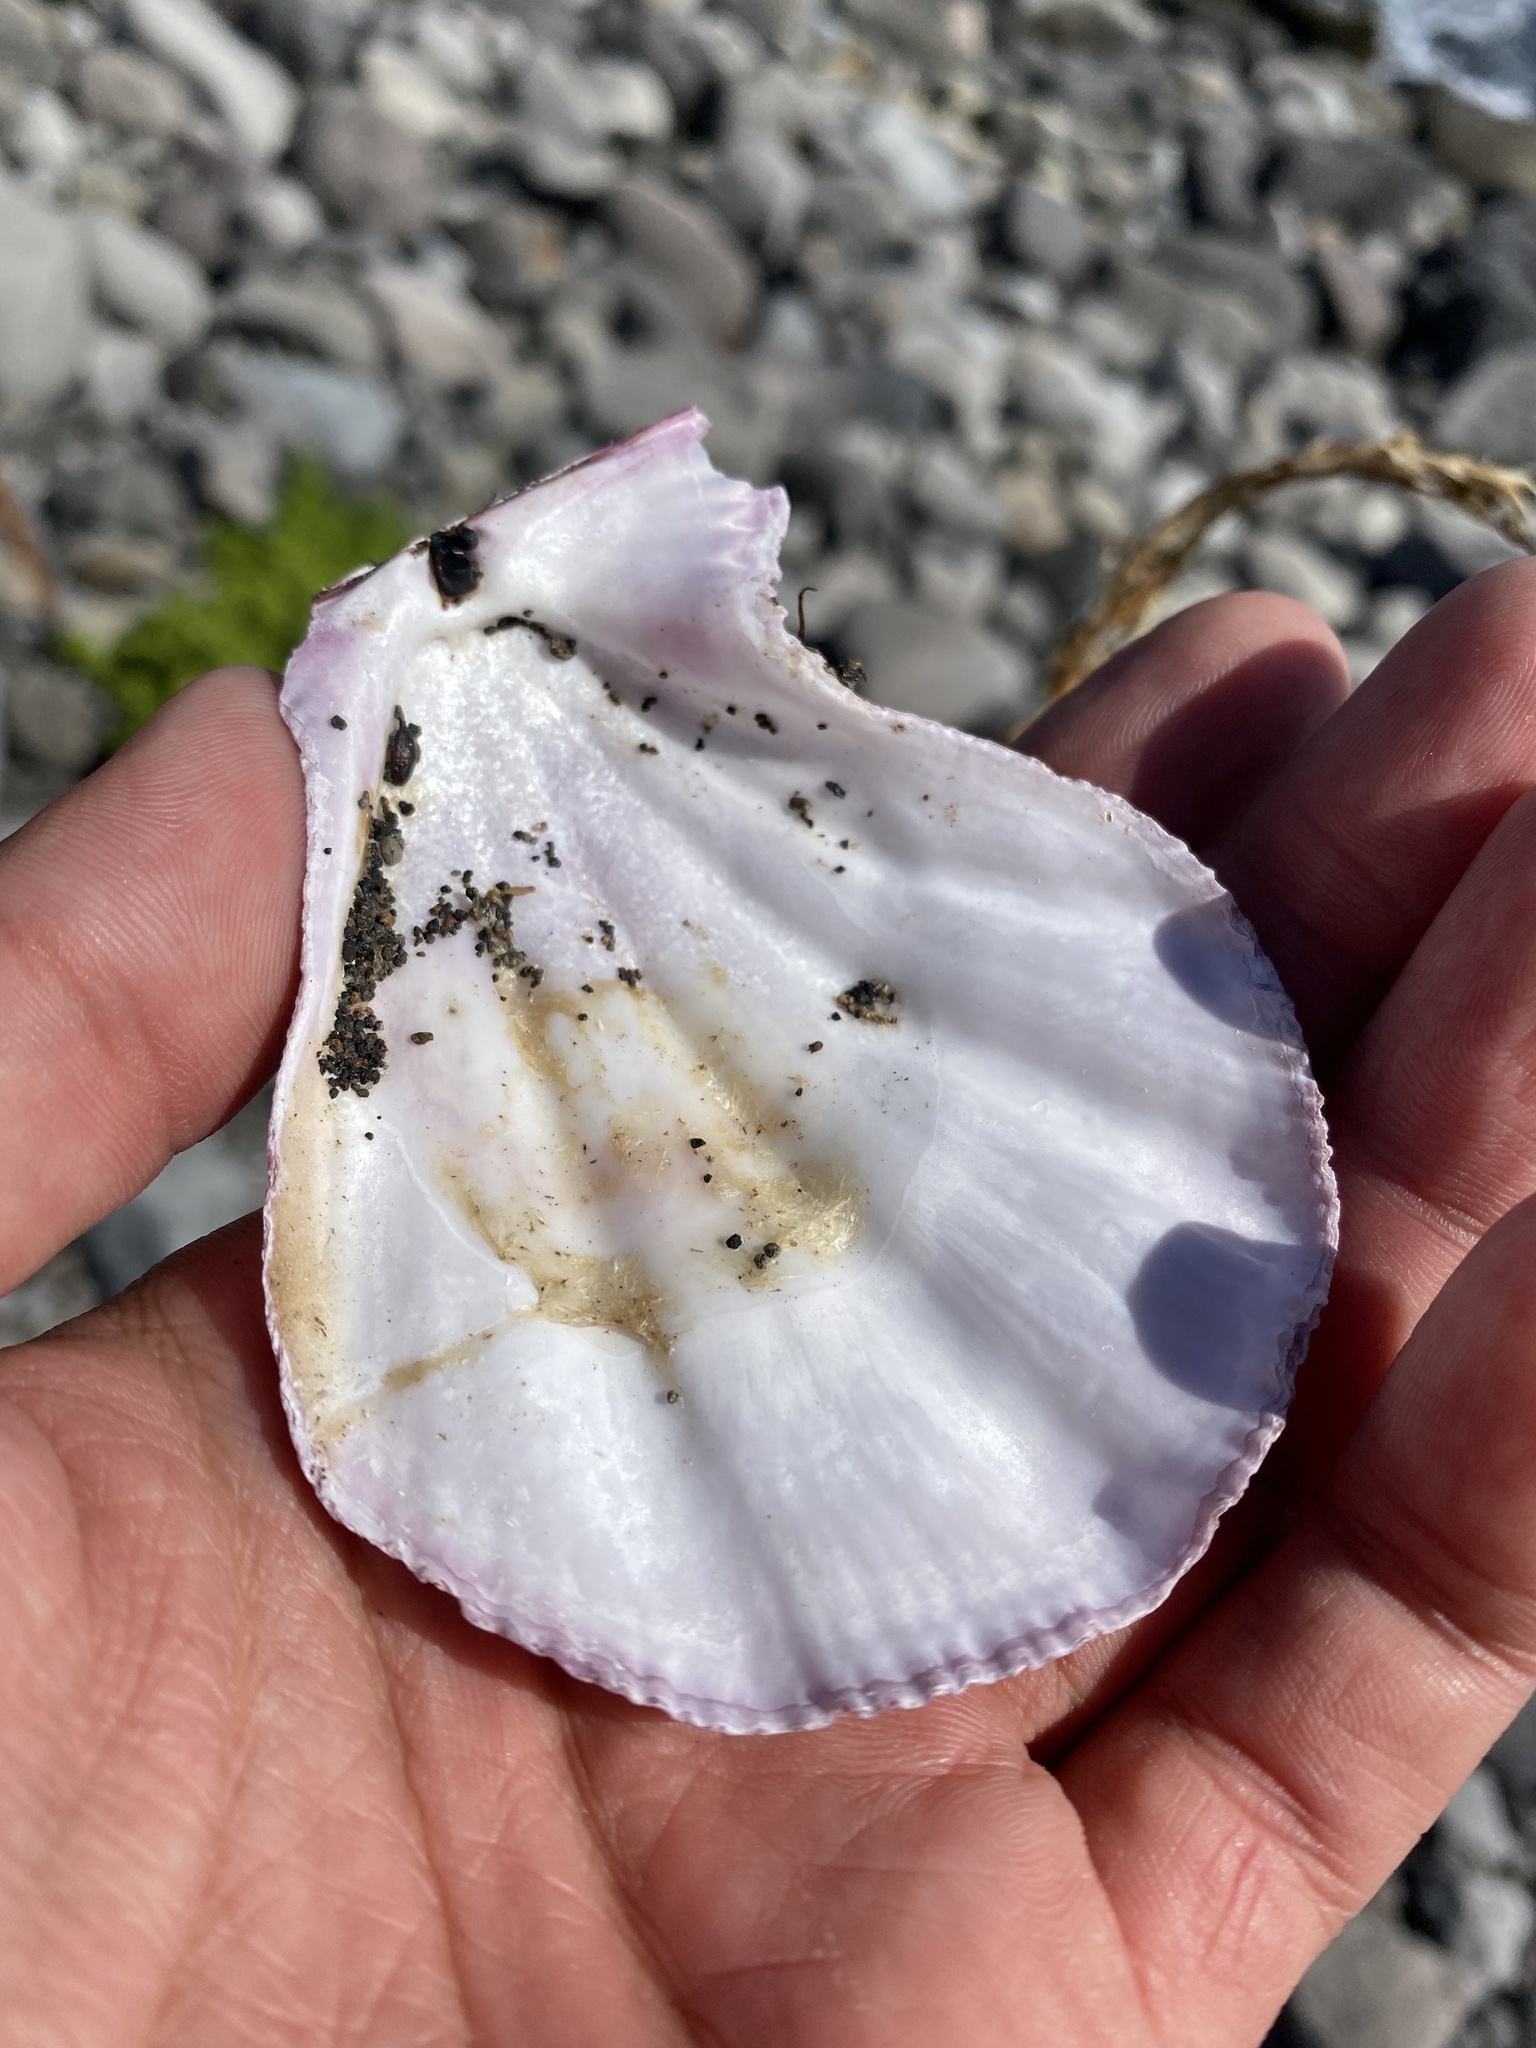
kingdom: Animalia
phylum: Mollusca
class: Bivalvia
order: Pectinida
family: Pectinidae
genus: Swiftopecten
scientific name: Swiftopecten swiftii
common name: Swift's scallop
